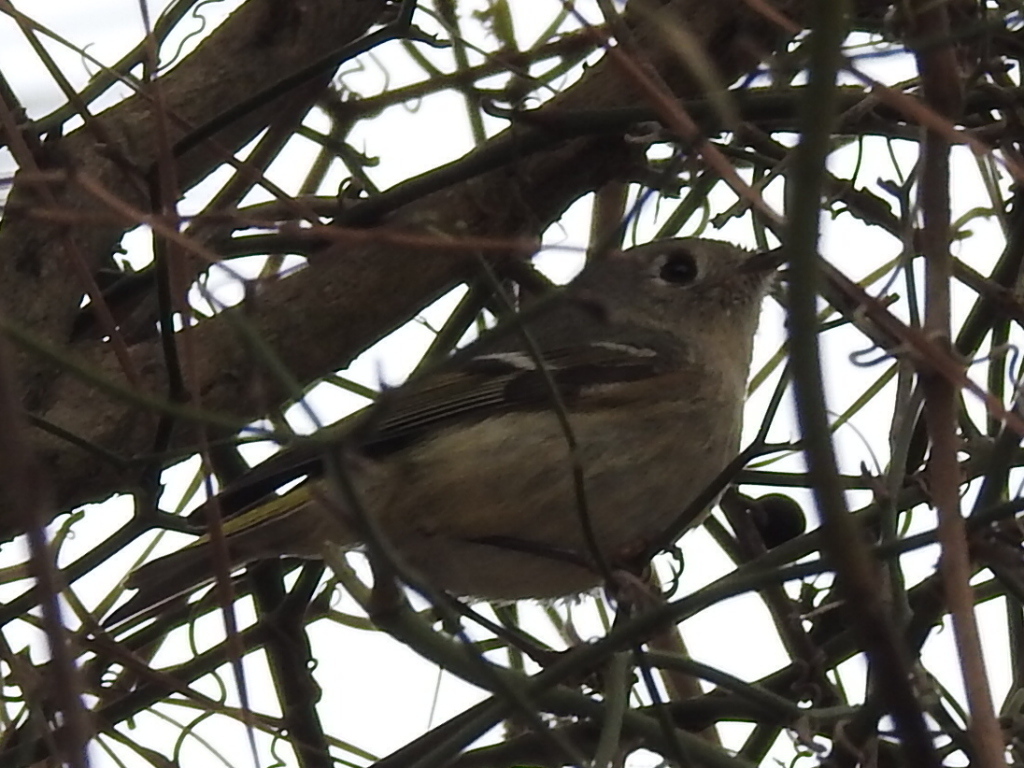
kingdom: Animalia
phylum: Chordata
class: Aves
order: Passeriformes
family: Regulidae
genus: Regulus
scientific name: Regulus calendula
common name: Ruby-crowned kinglet
